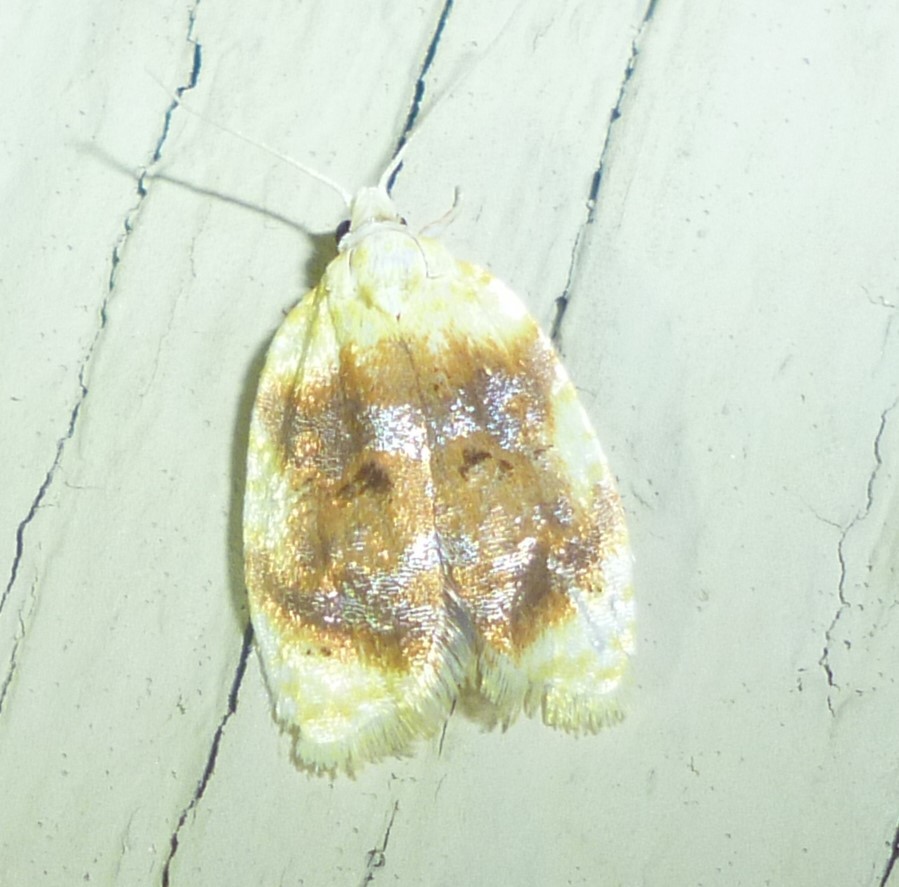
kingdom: Animalia
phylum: Arthropoda
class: Insecta
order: Lepidoptera
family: Tortricidae
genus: Acleris
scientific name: Acleris semipurpurana
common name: Oak leaftier moth
